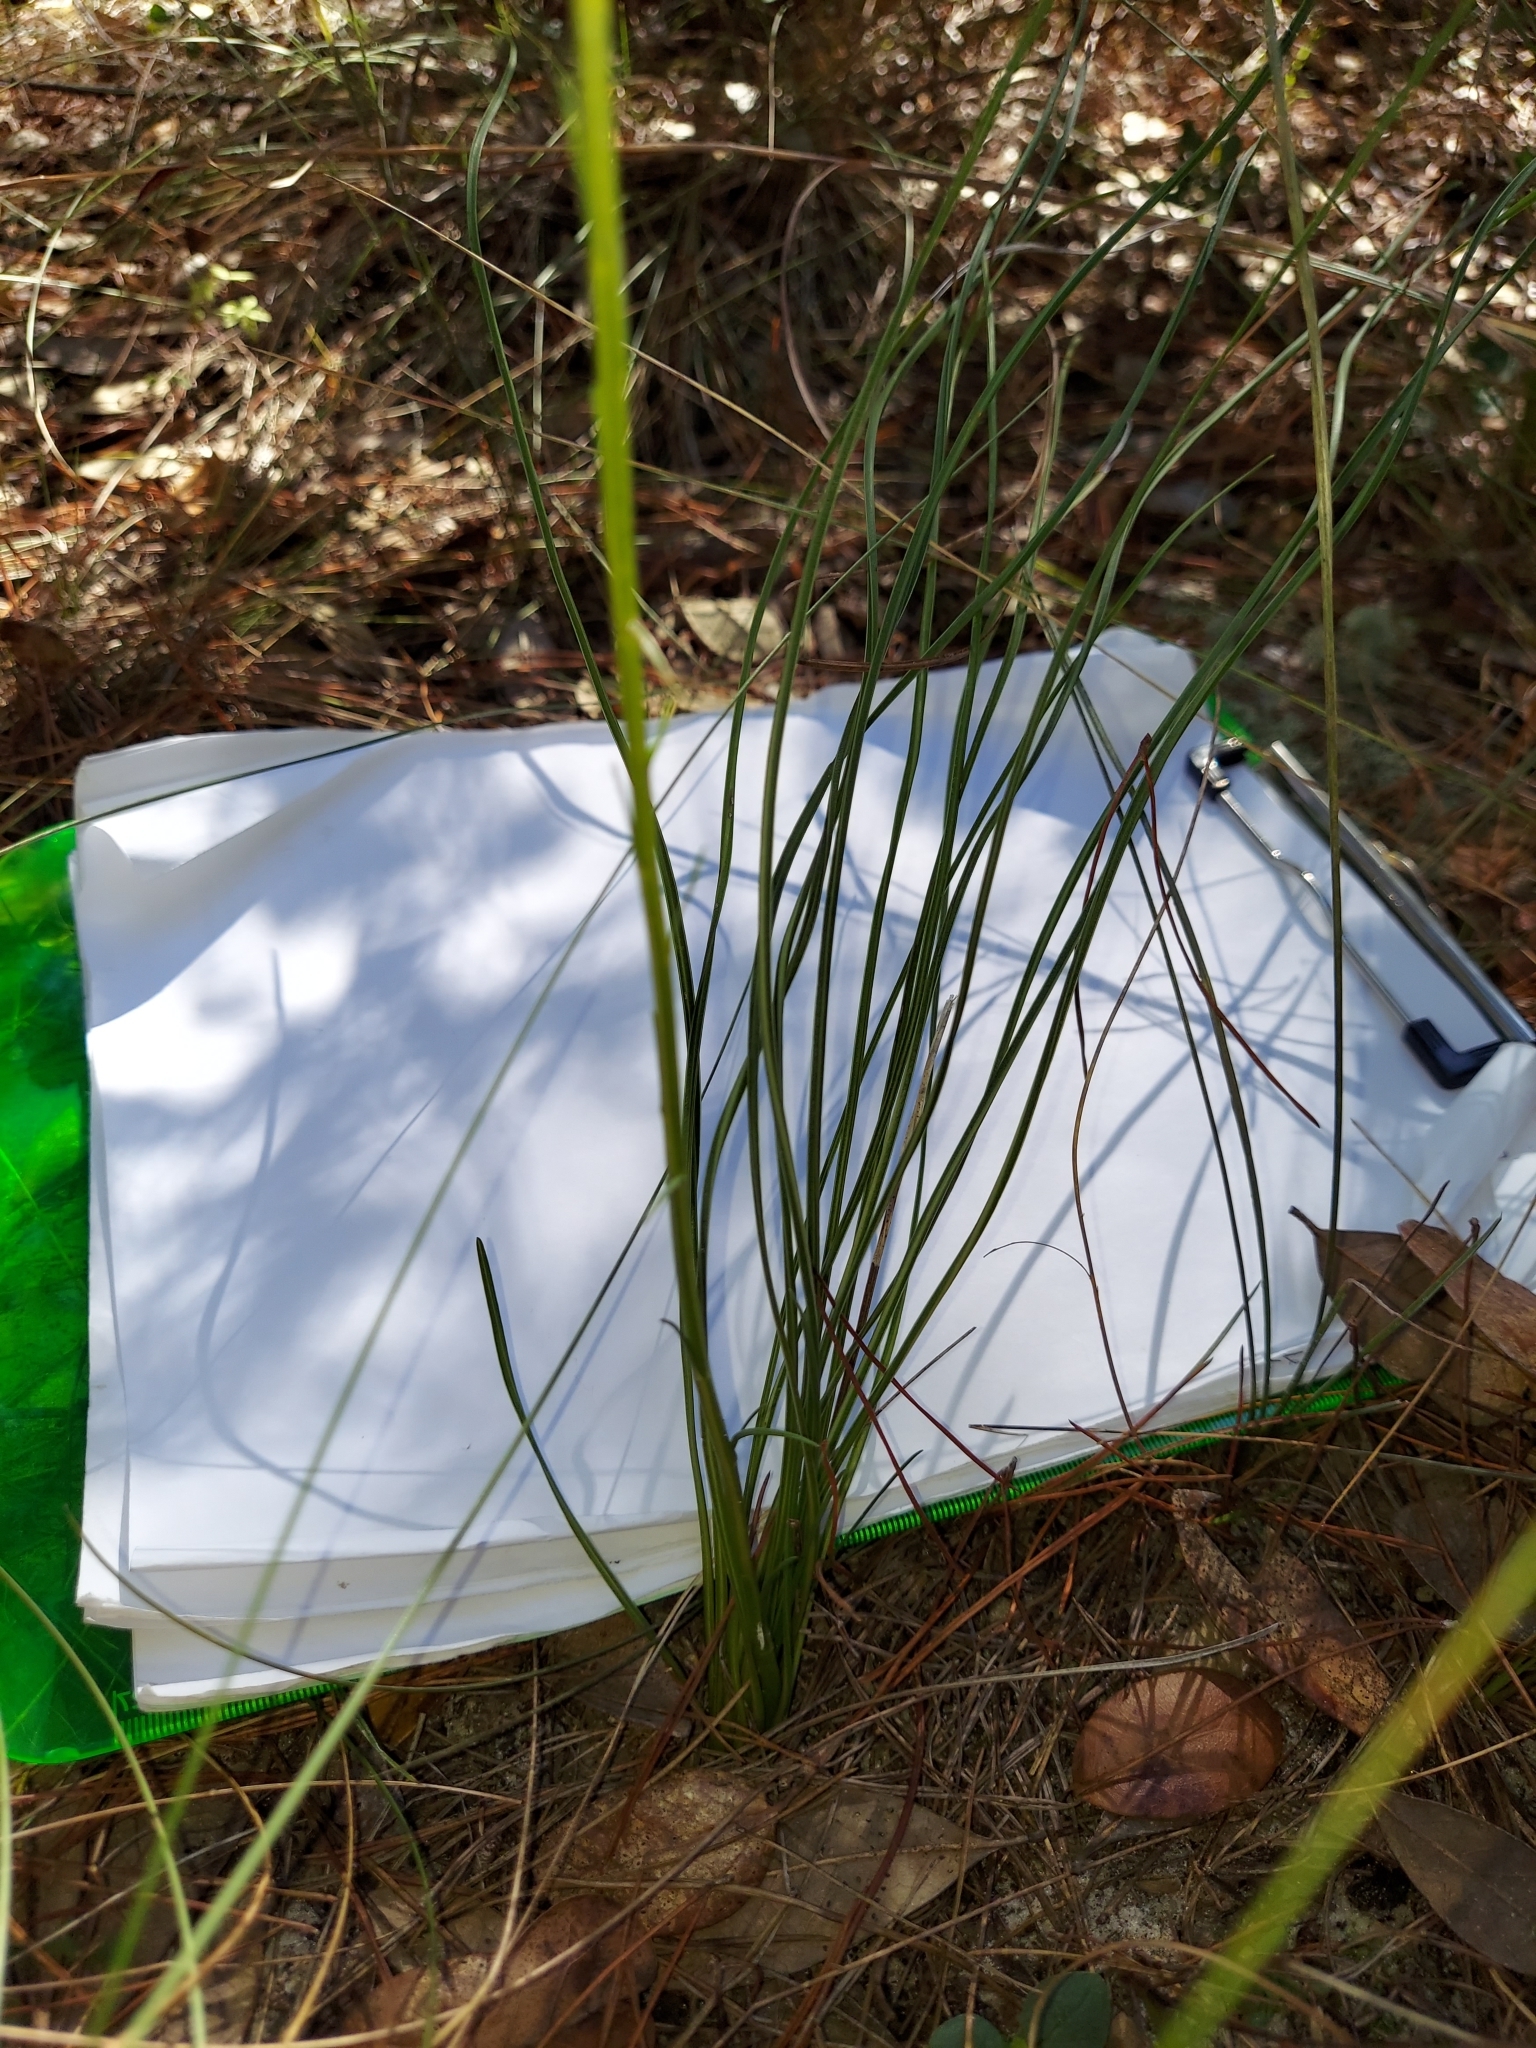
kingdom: Plantae
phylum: Tracheophyta
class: Magnoliopsida
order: Asterales
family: Asteraceae
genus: Liatris
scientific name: Liatris quadriflora
